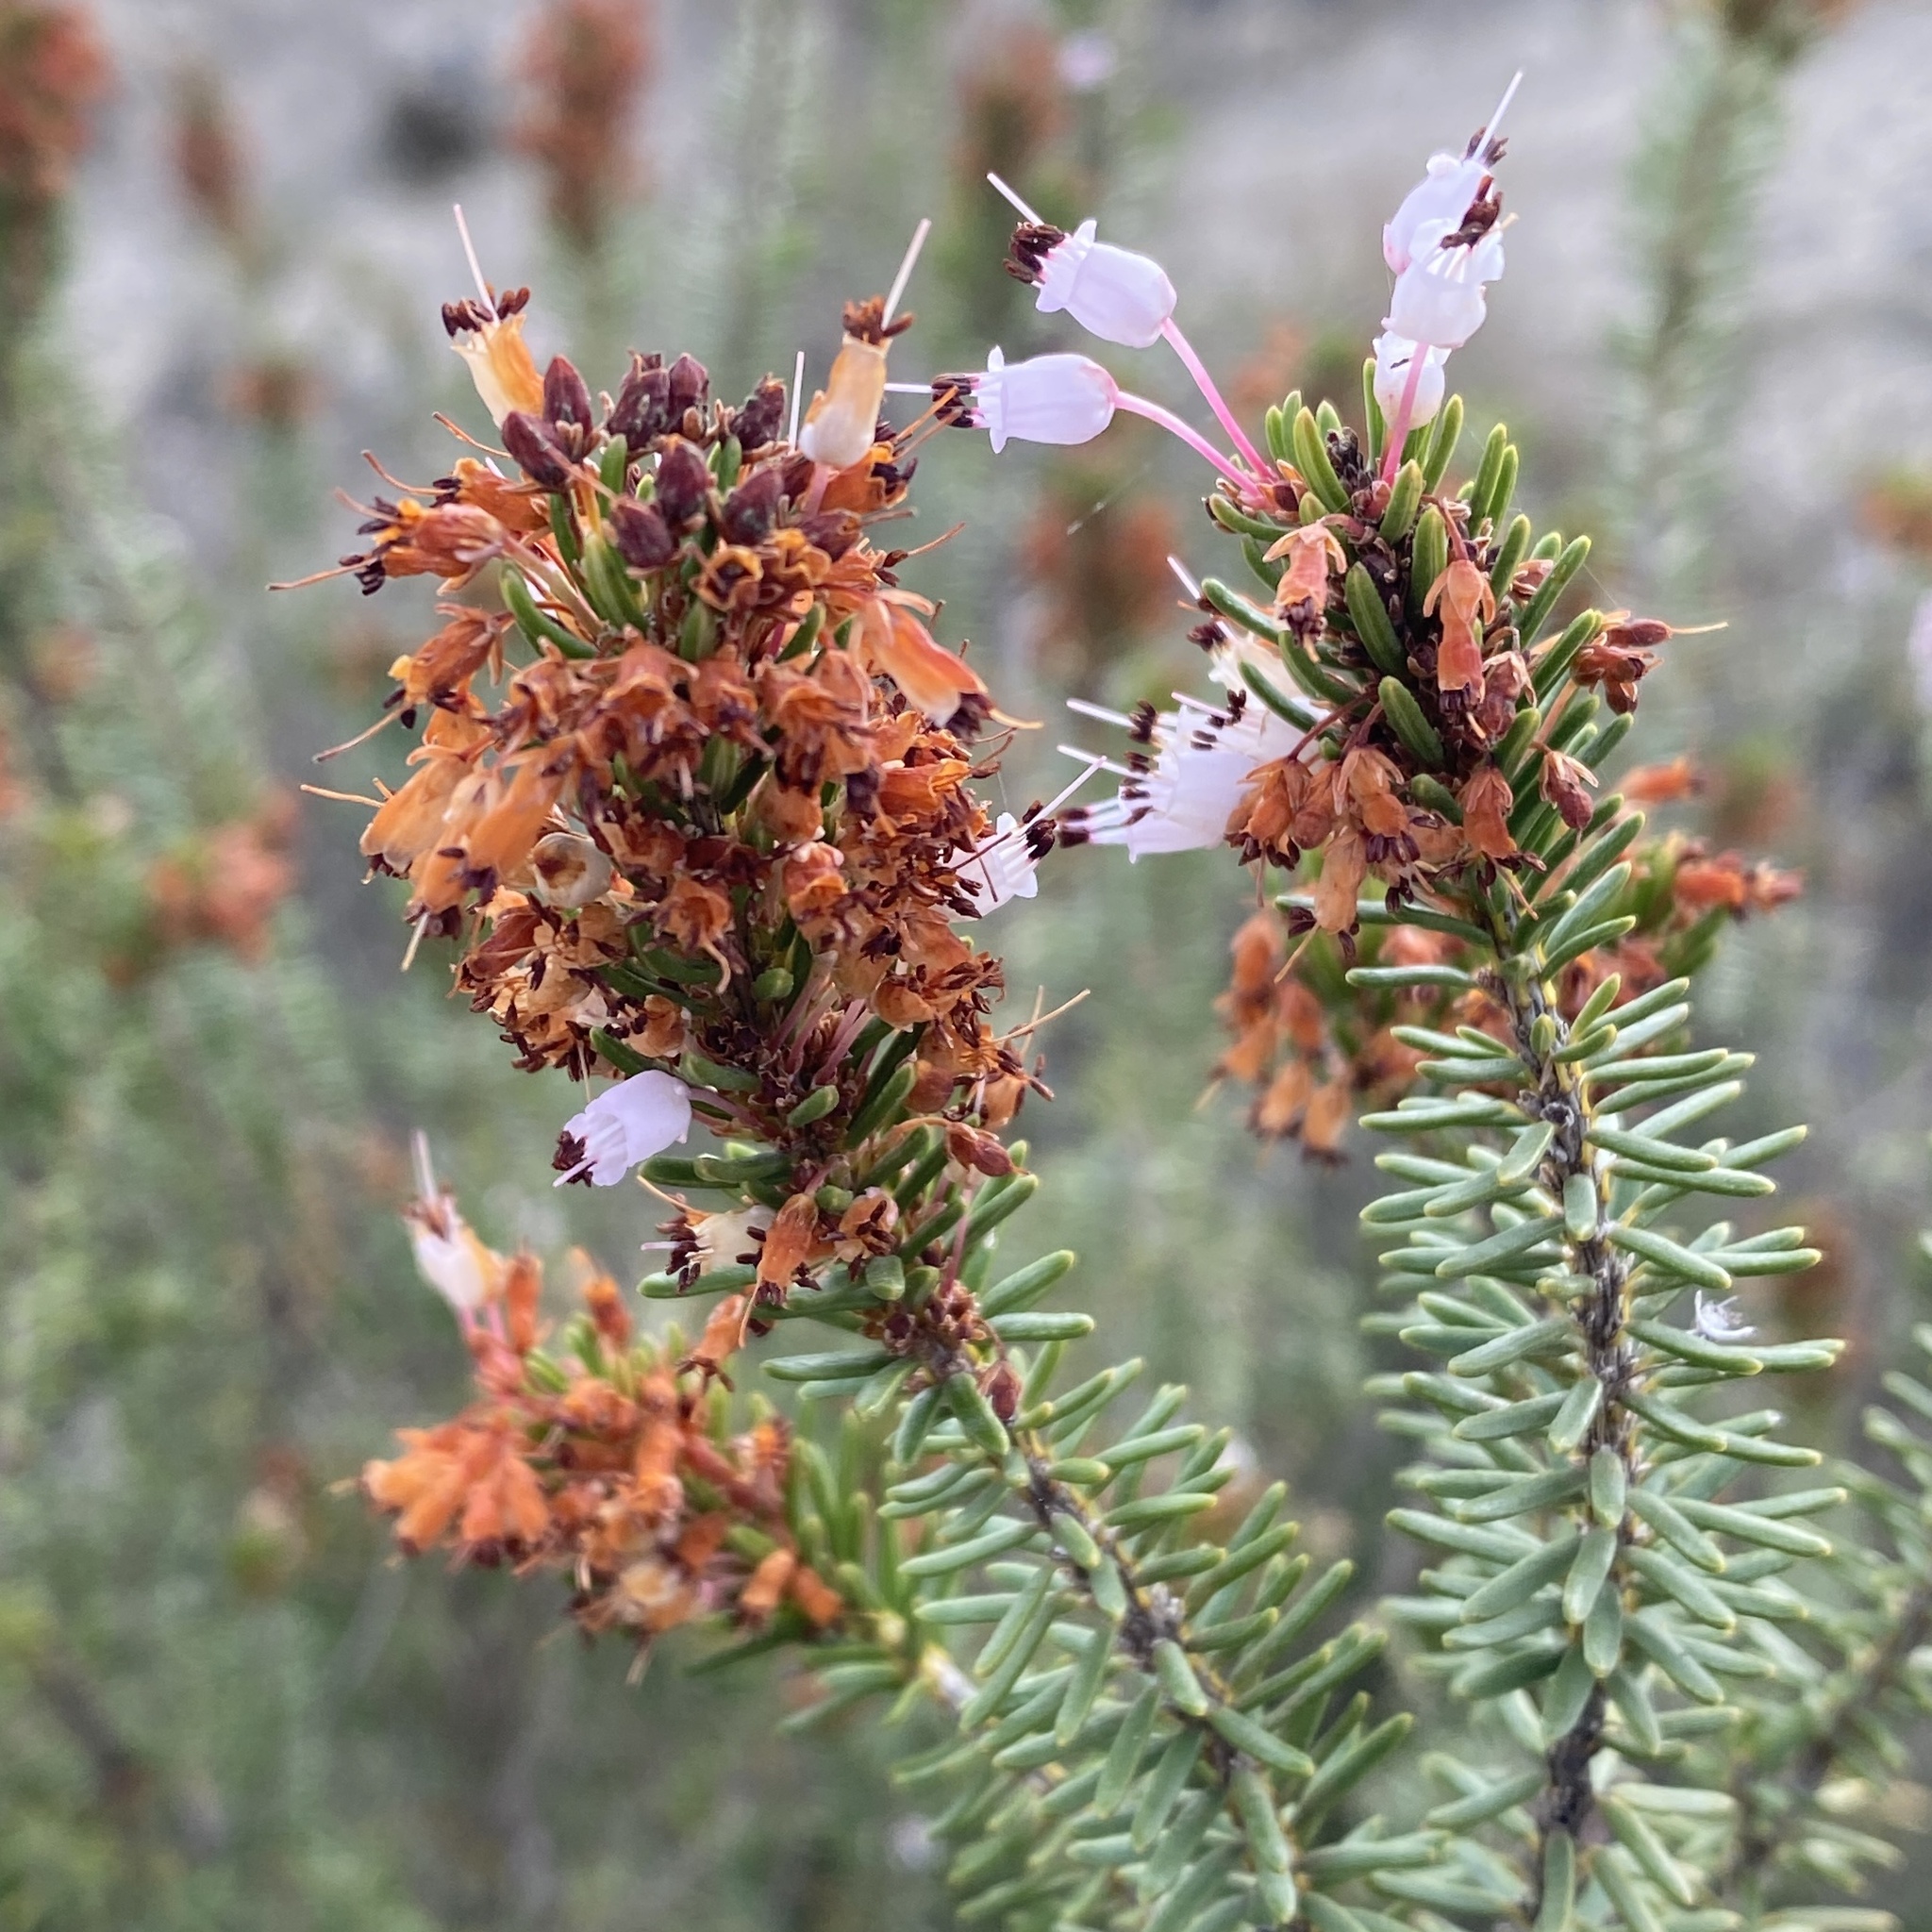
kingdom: Plantae
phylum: Tracheophyta
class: Magnoliopsida
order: Ericales
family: Ericaceae
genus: Erica
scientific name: Erica multiflora
